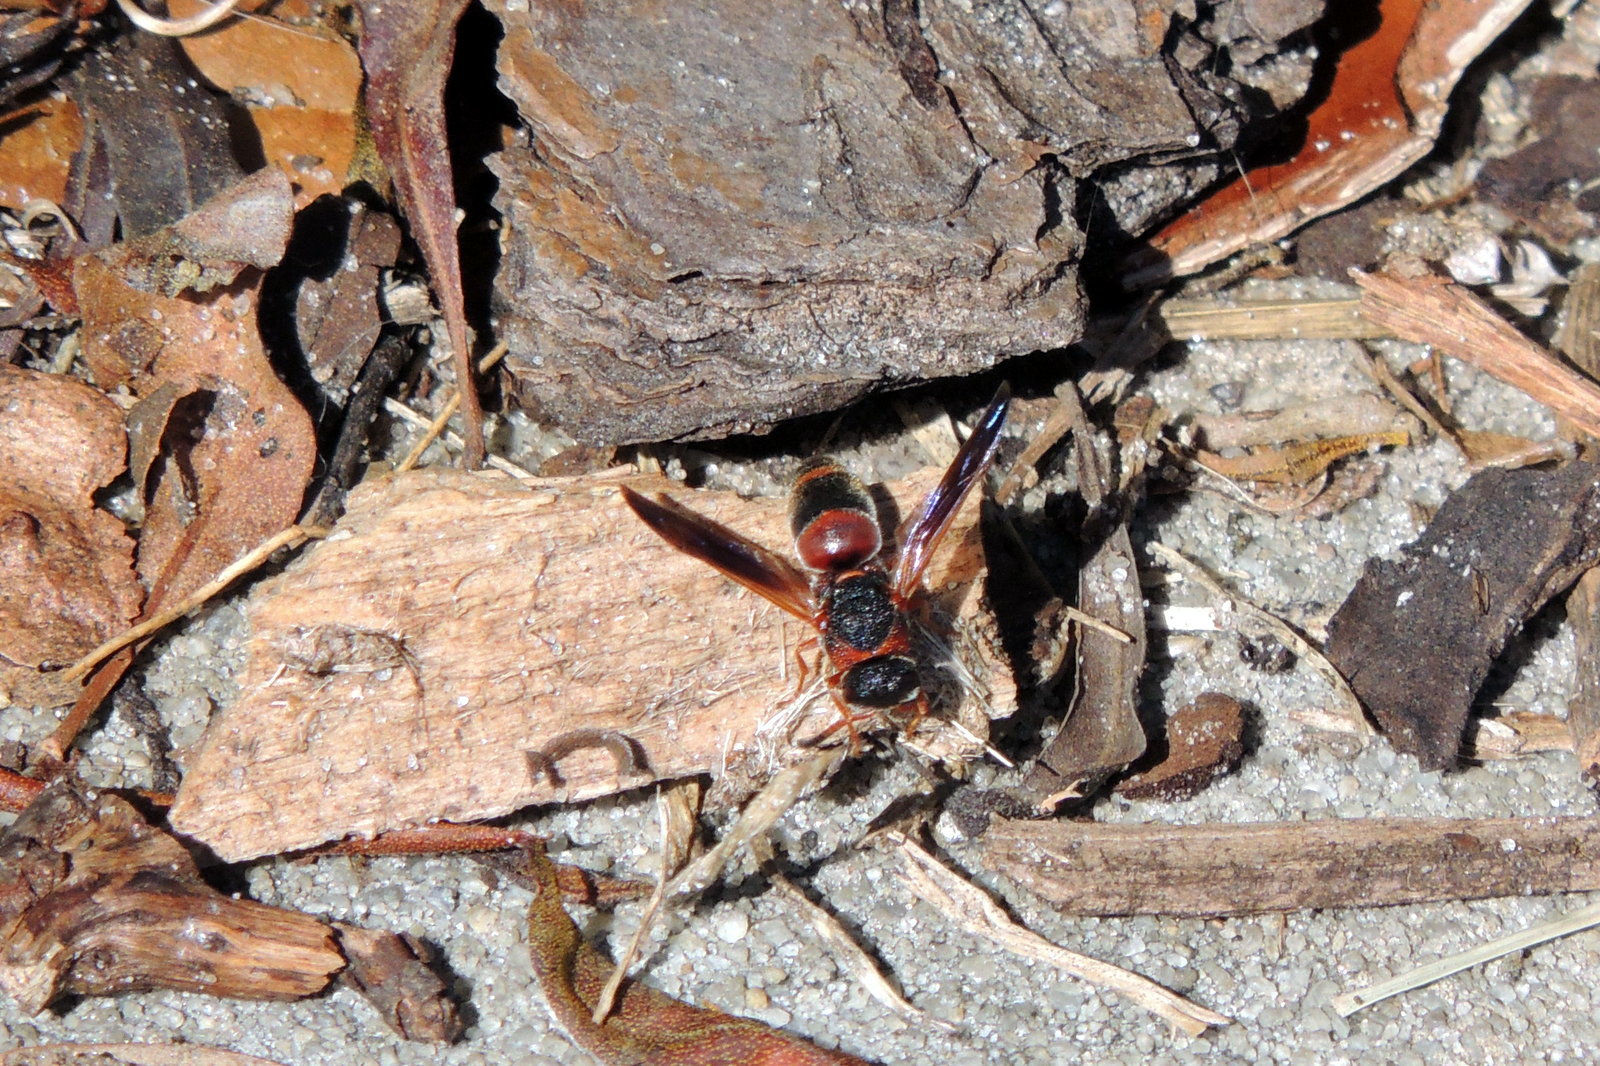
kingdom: Animalia
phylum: Arthropoda
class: Insecta
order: Hymenoptera
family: Eumenidae
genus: Pachodynerus
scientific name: Pachodynerus erynnis
